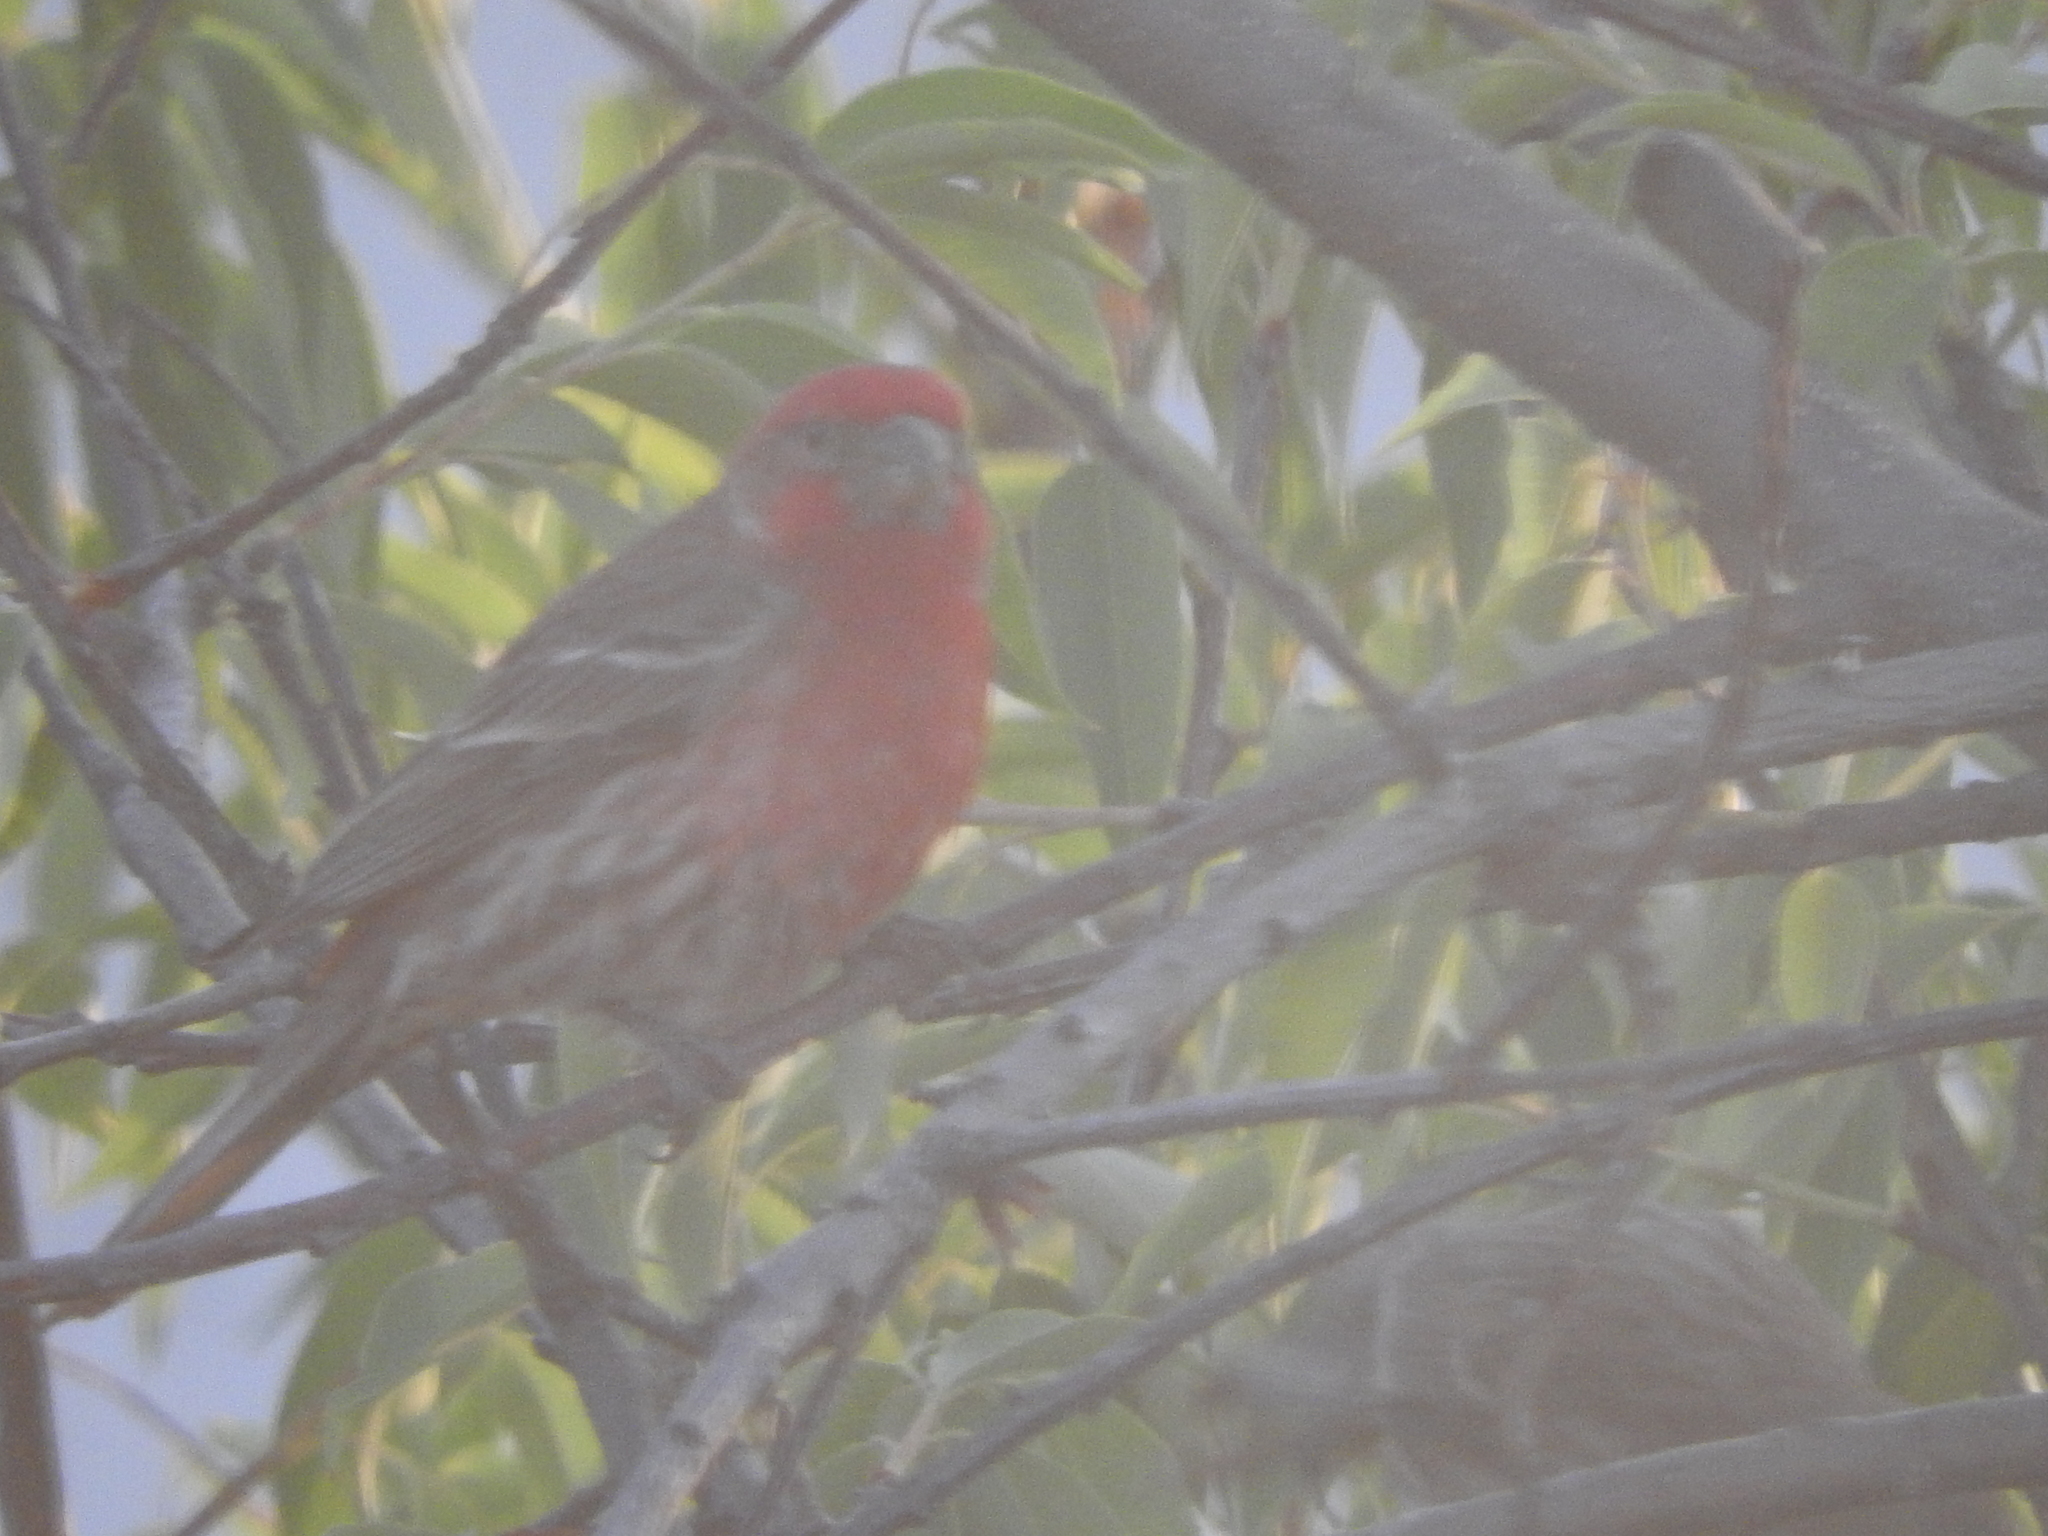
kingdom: Animalia
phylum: Chordata
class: Aves
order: Passeriformes
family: Fringillidae
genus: Haemorhous
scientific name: Haemorhous mexicanus
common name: House finch
